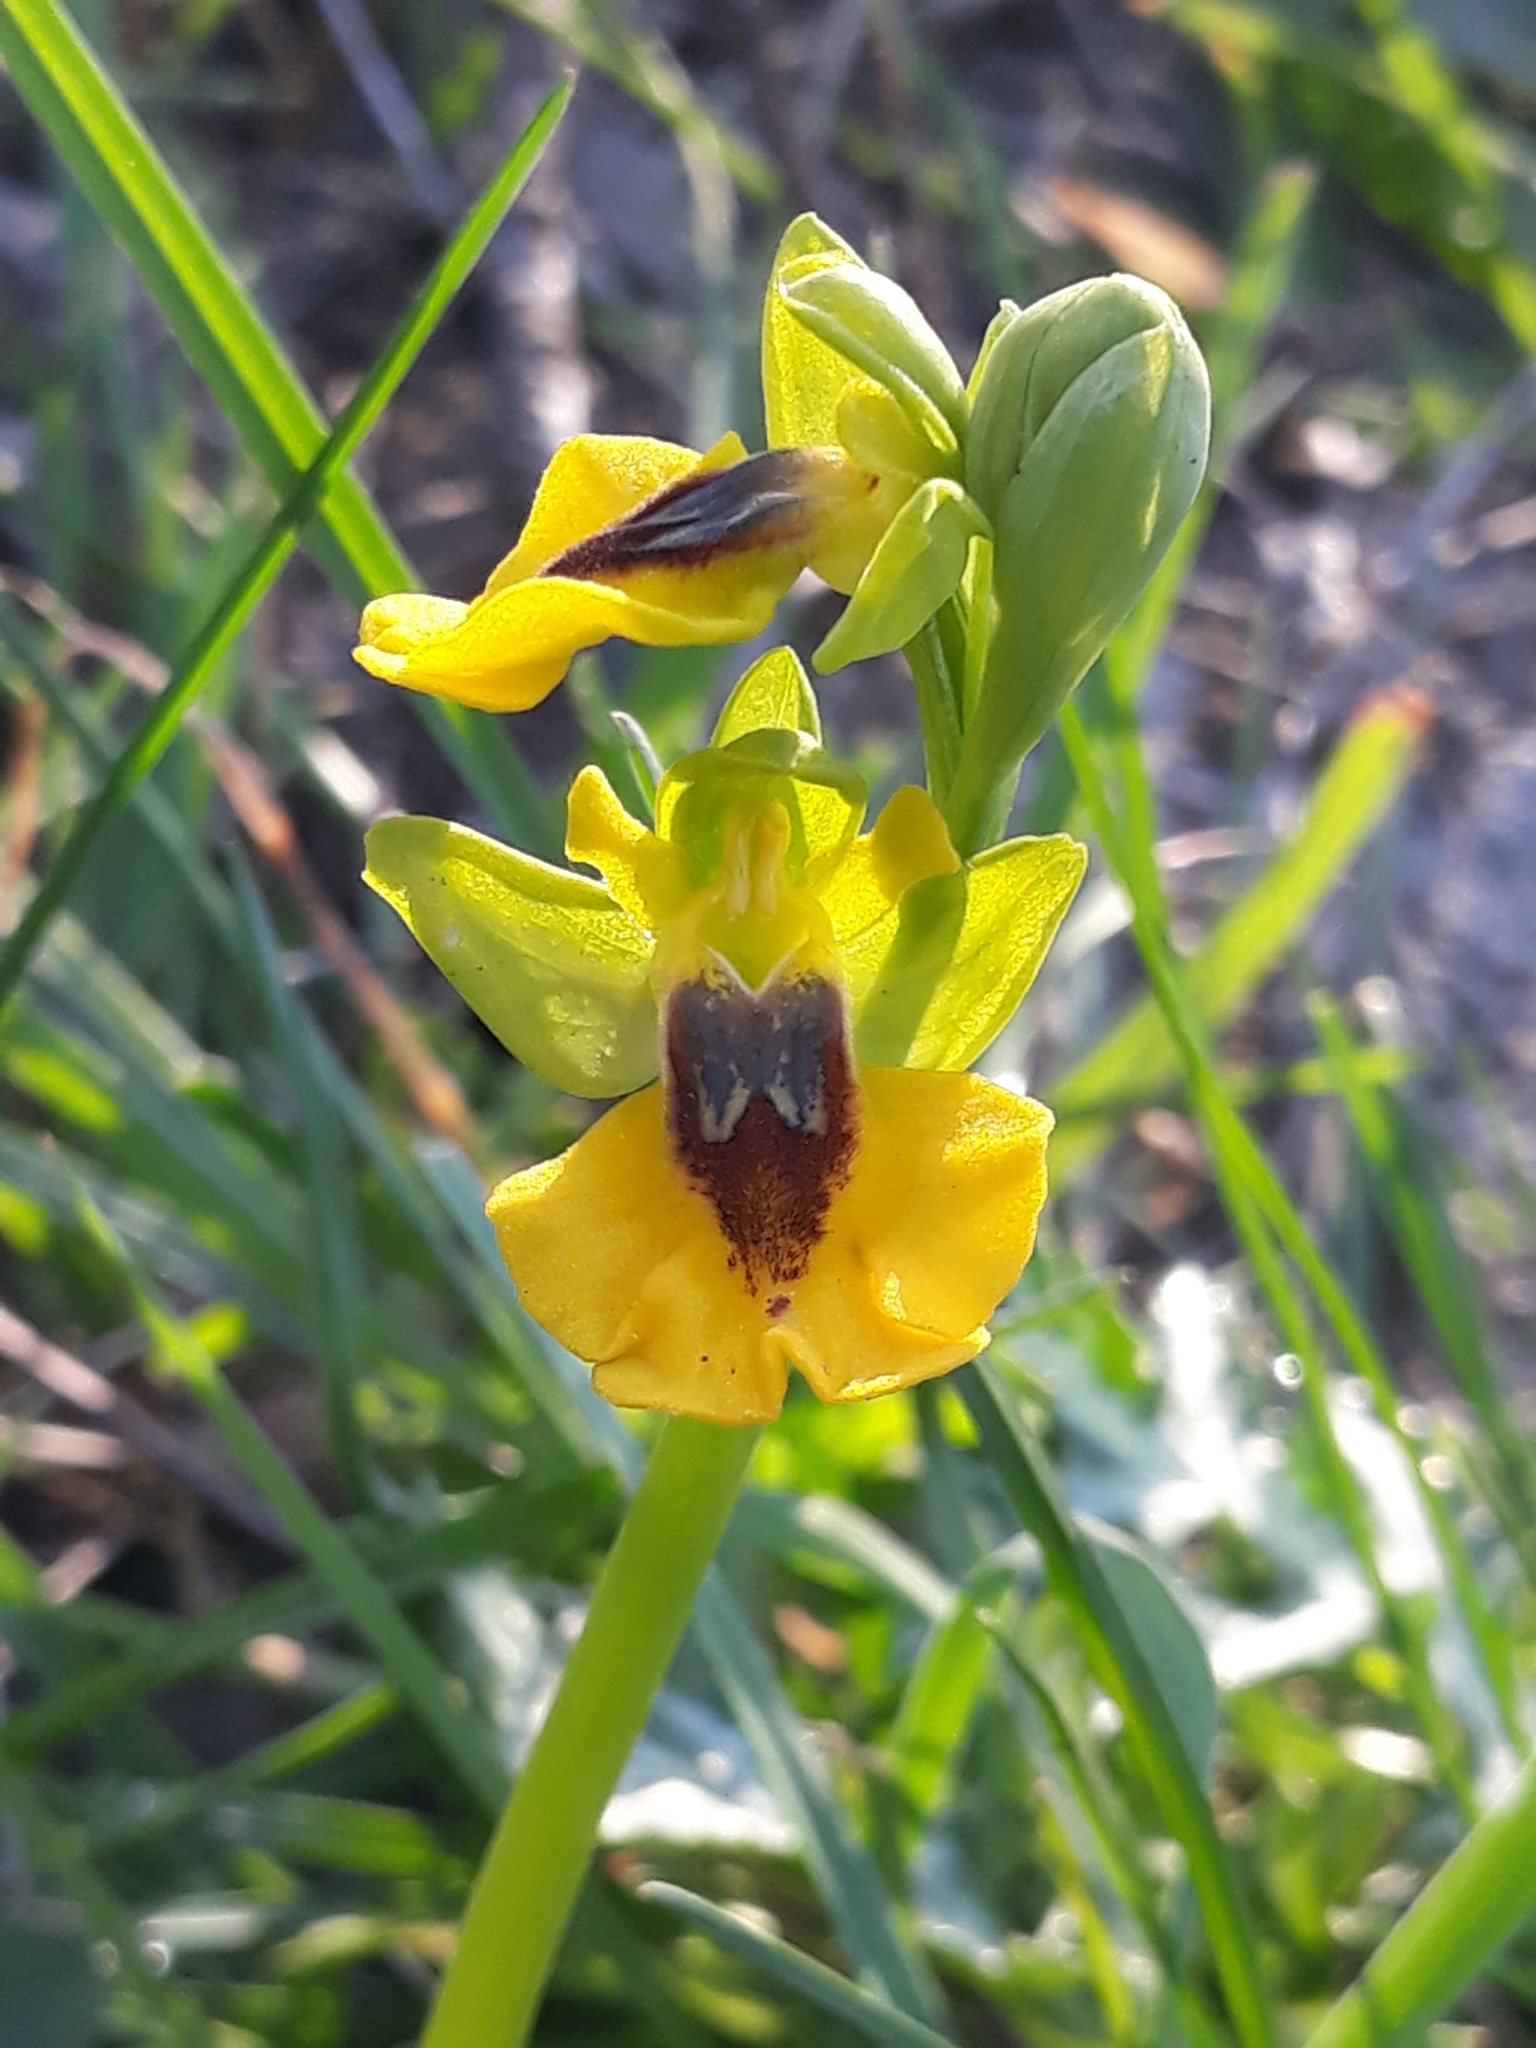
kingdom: Plantae
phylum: Tracheophyta
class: Liliopsida
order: Asparagales
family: Orchidaceae
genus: Ophrys
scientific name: Ophrys lutea
